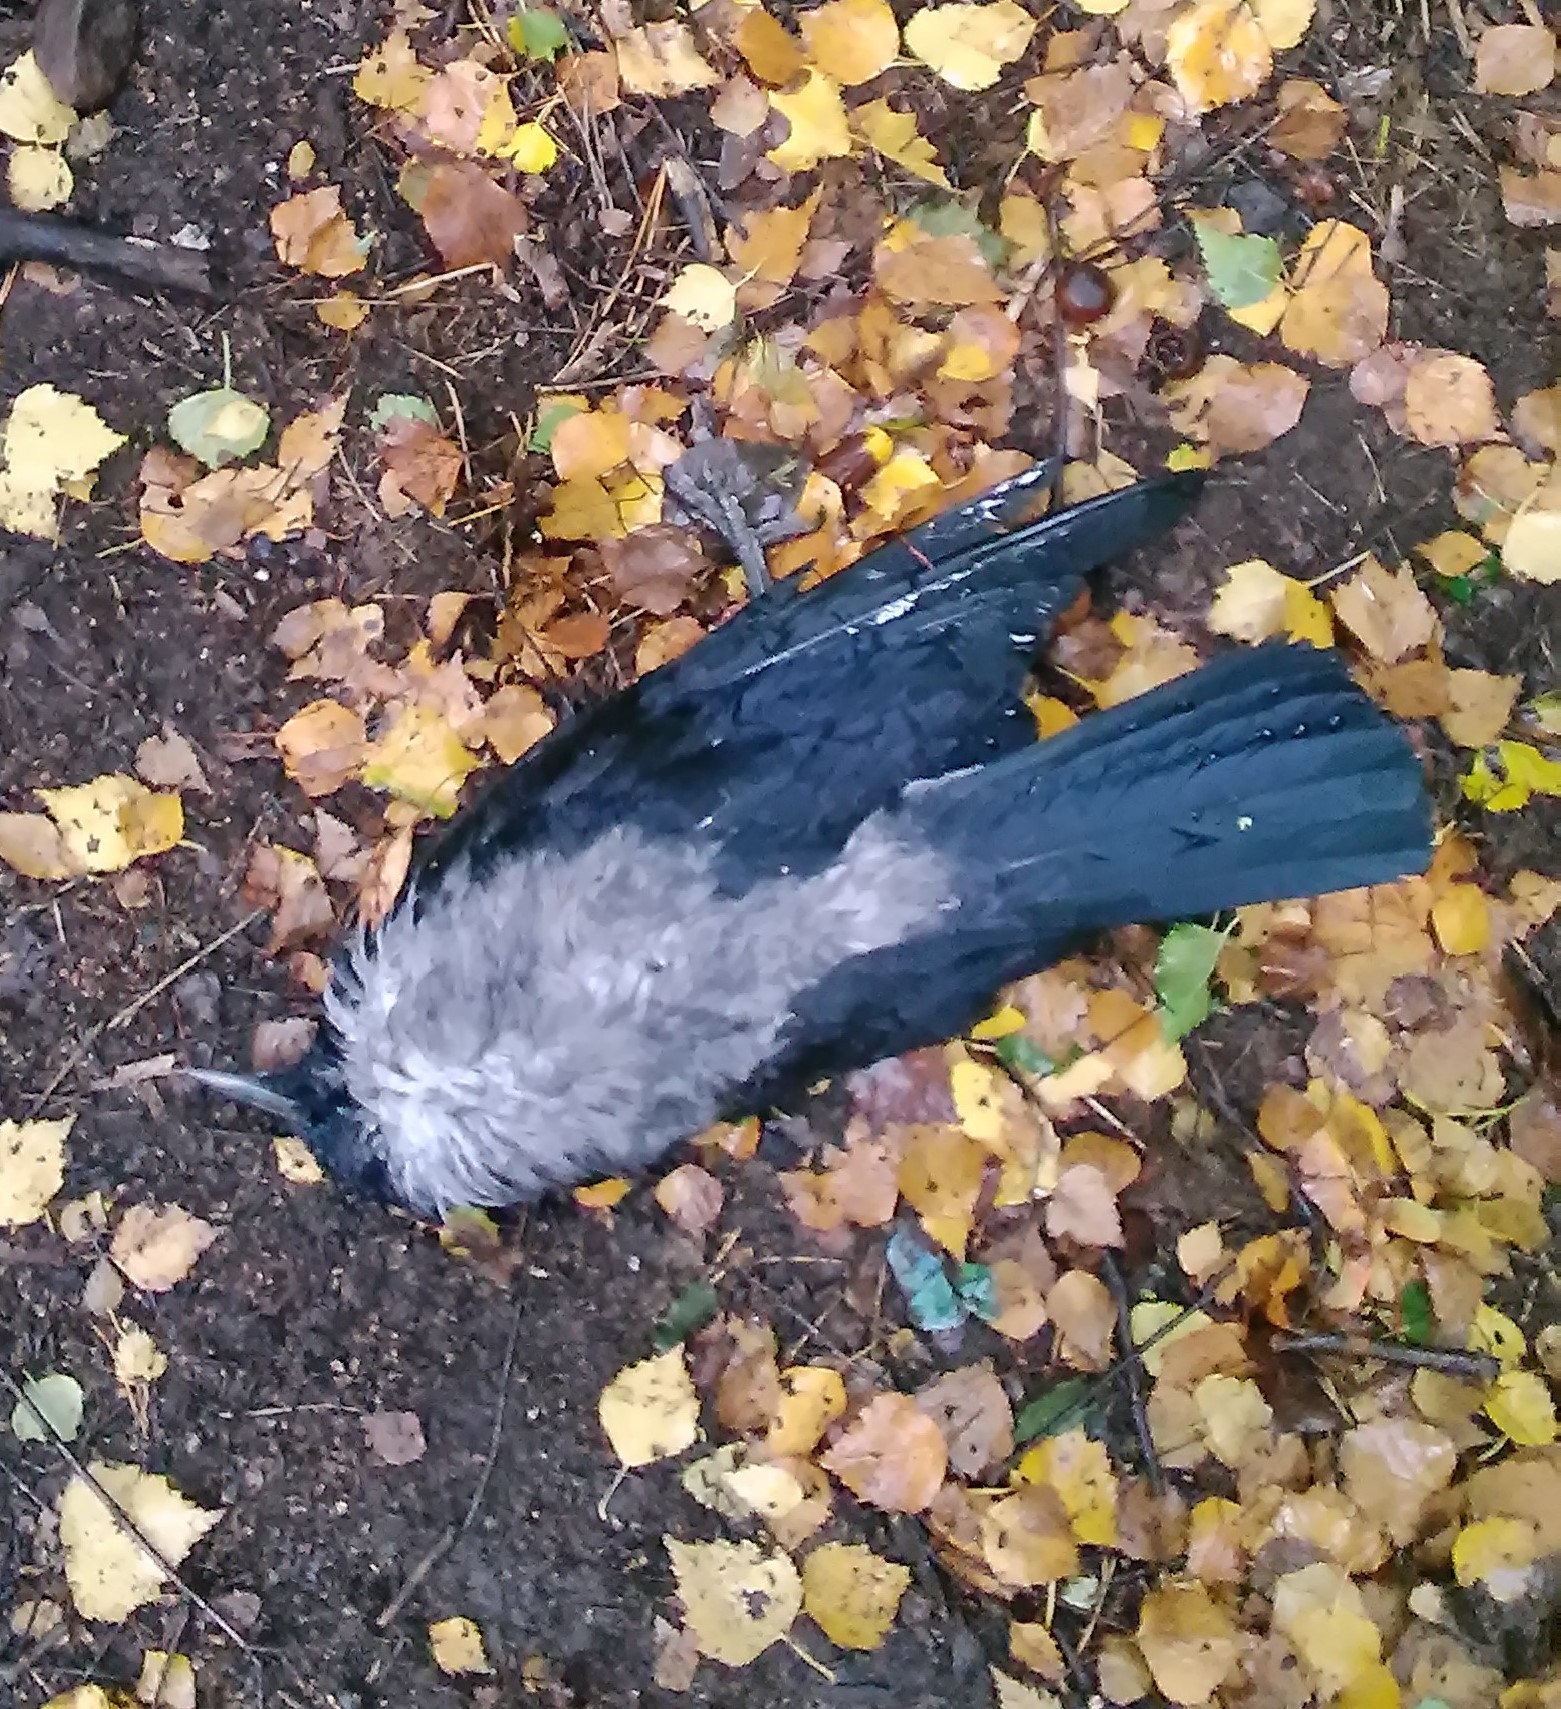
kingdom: Animalia
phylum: Chordata
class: Aves
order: Passeriformes
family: Corvidae
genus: Corvus
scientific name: Corvus cornix
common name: Hooded crow
